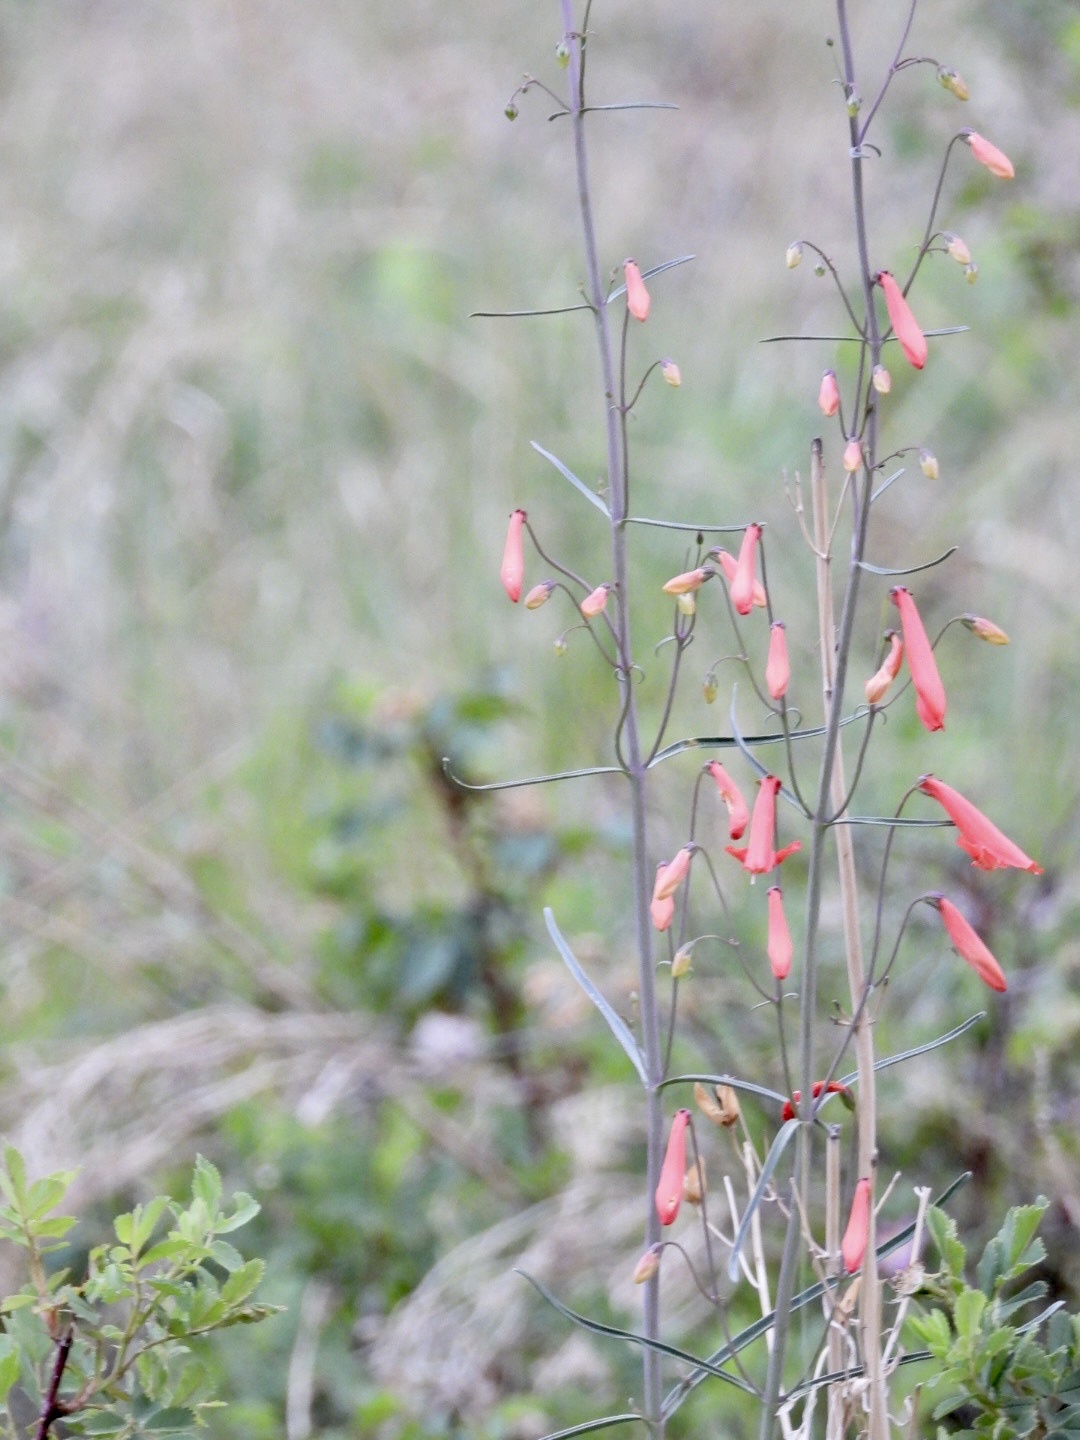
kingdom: Plantae
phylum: Tracheophyta
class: Magnoliopsida
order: Lamiales
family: Plantaginaceae
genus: Penstemon
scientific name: Penstemon barbatus
